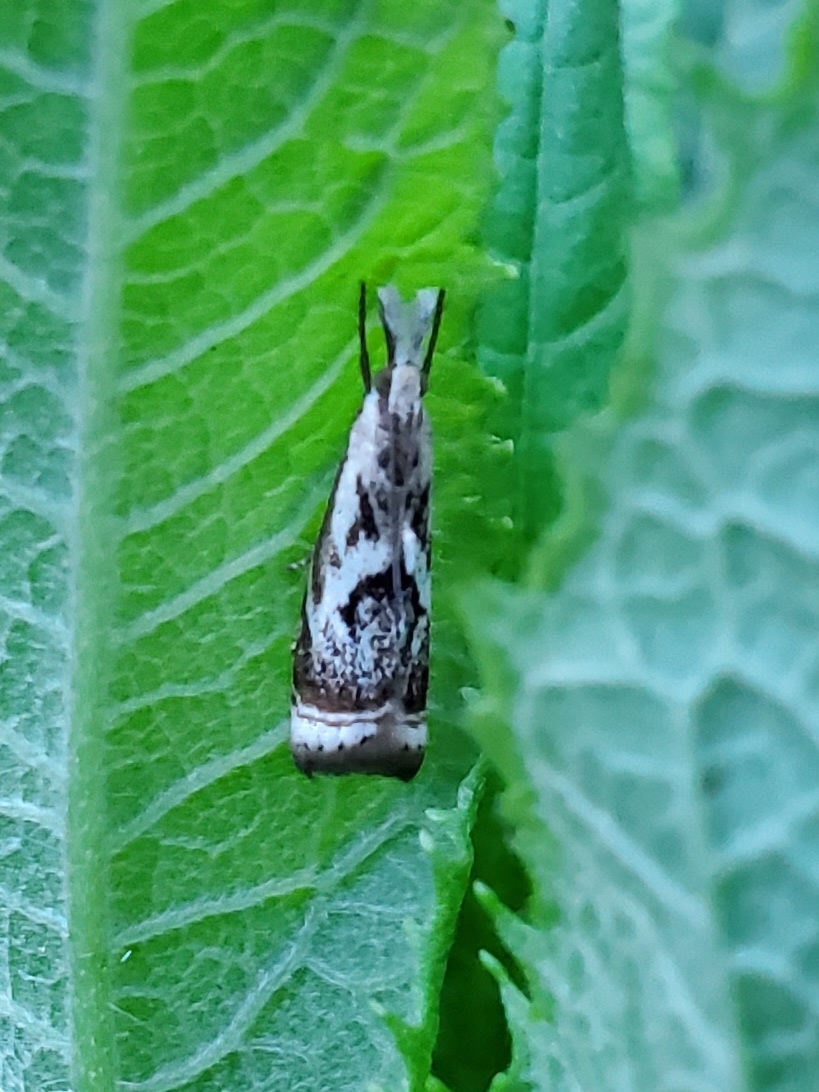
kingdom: Animalia
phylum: Arthropoda
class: Insecta
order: Lepidoptera
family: Crambidae
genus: Microcrambus
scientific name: Microcrambus elegans
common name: Elegant grass-veneer
